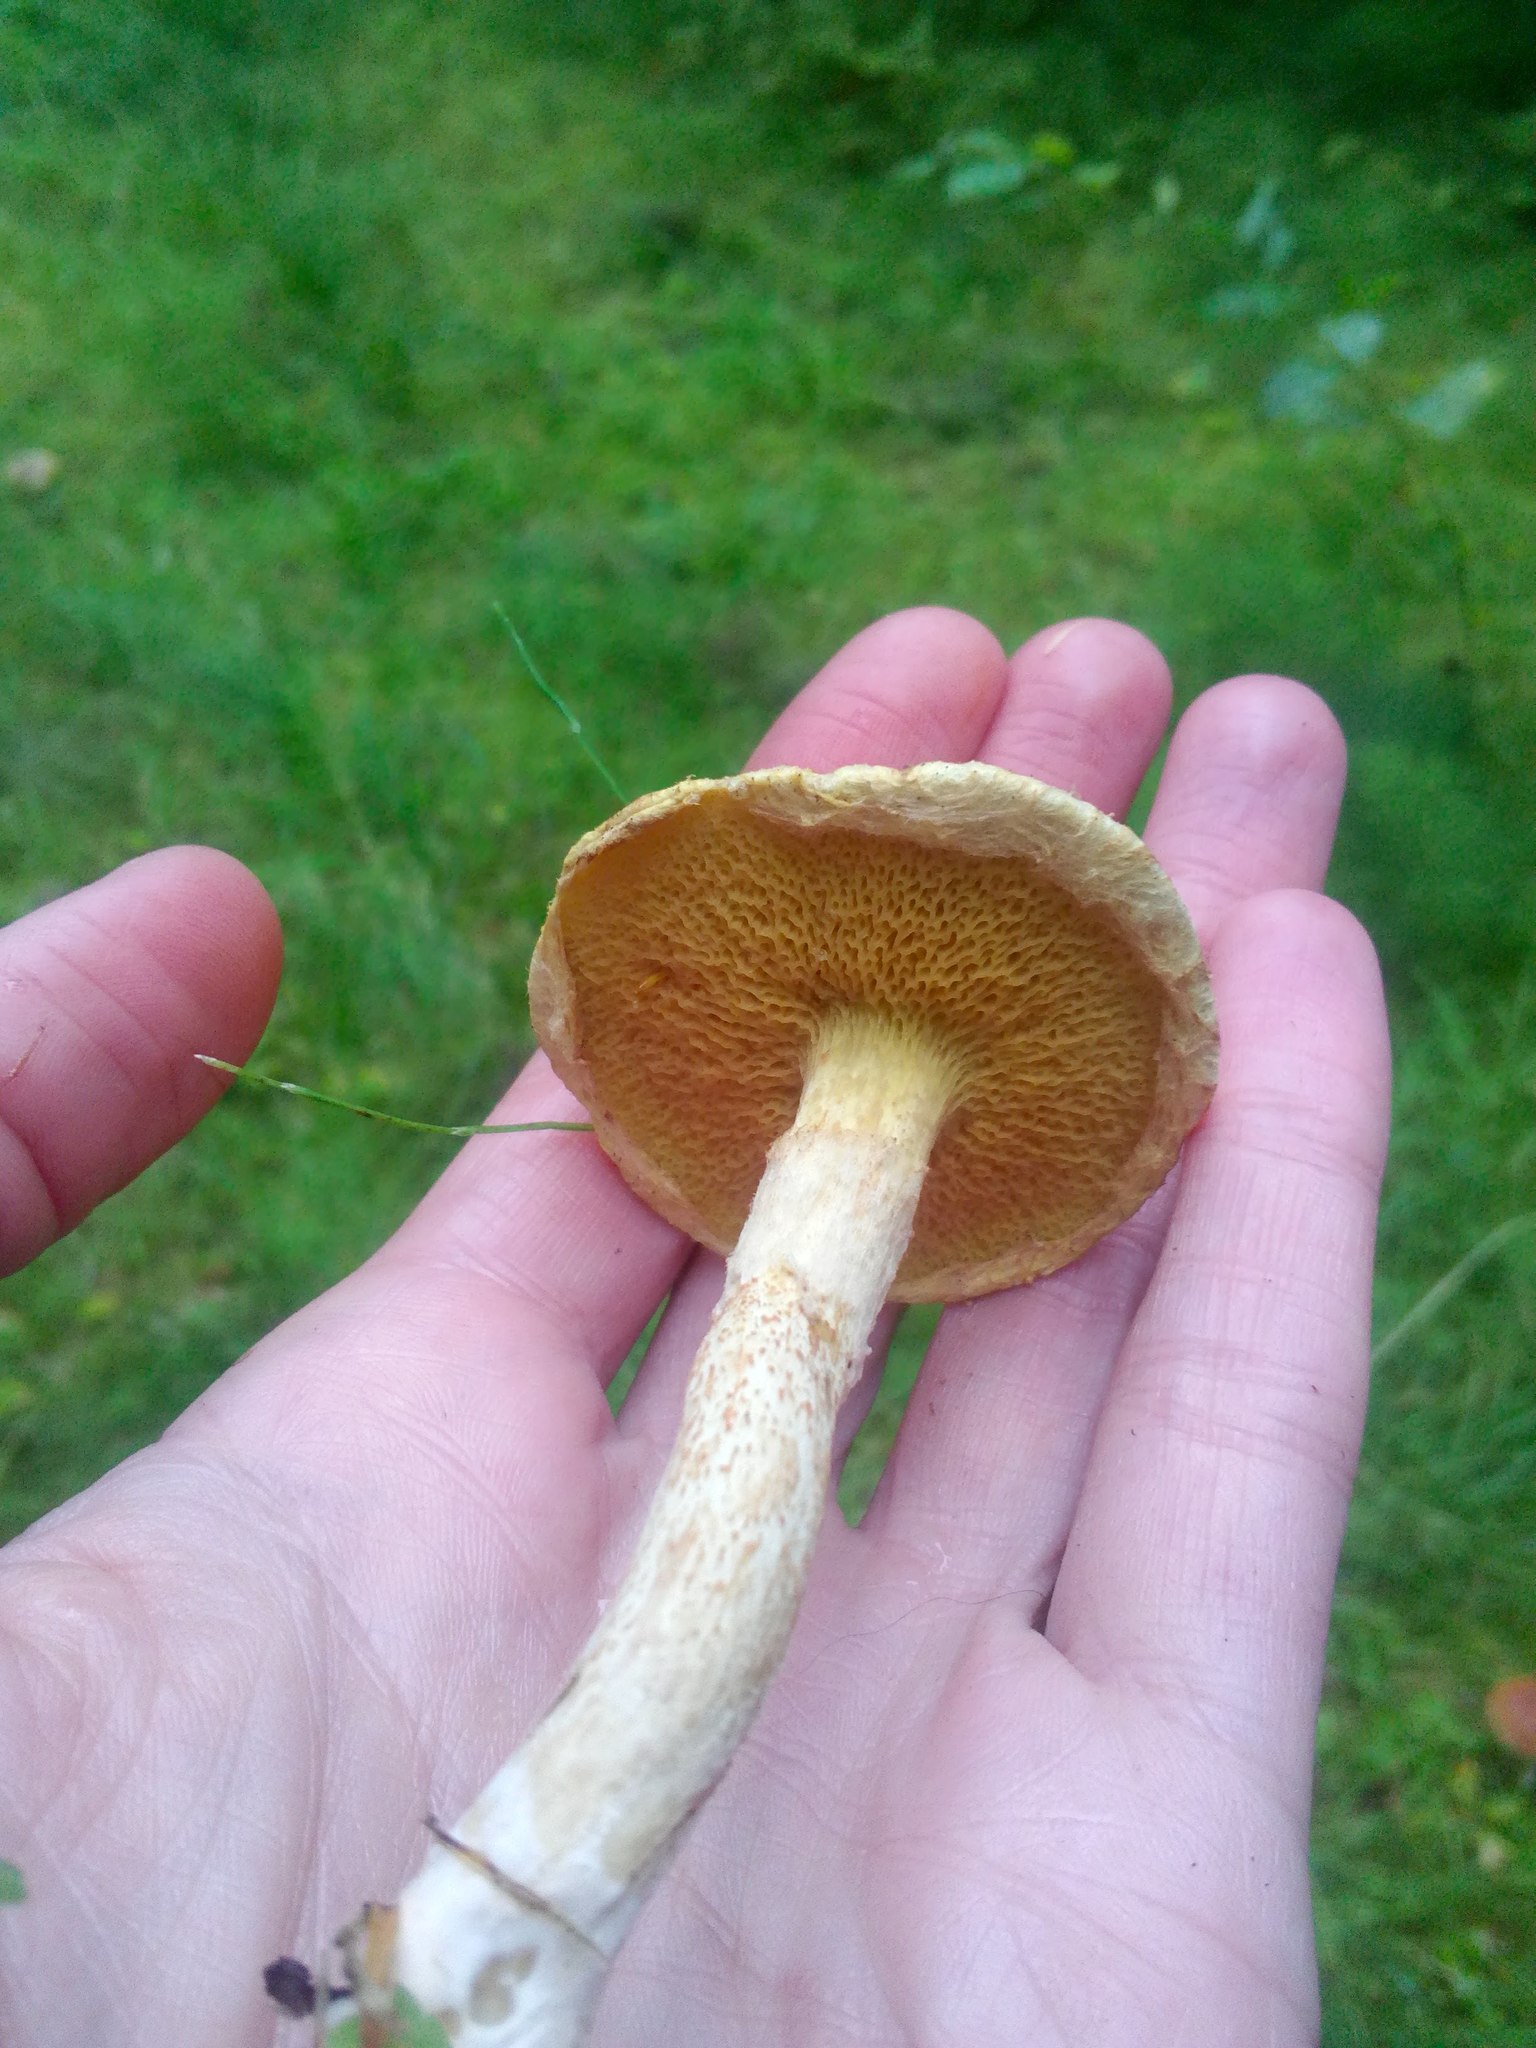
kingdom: Fungi
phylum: Basidiomycota
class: Agaricomycetes
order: Boletales
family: Suillaceae
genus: Suillus
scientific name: Suillus americanus
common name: Chicken fat mushroom
